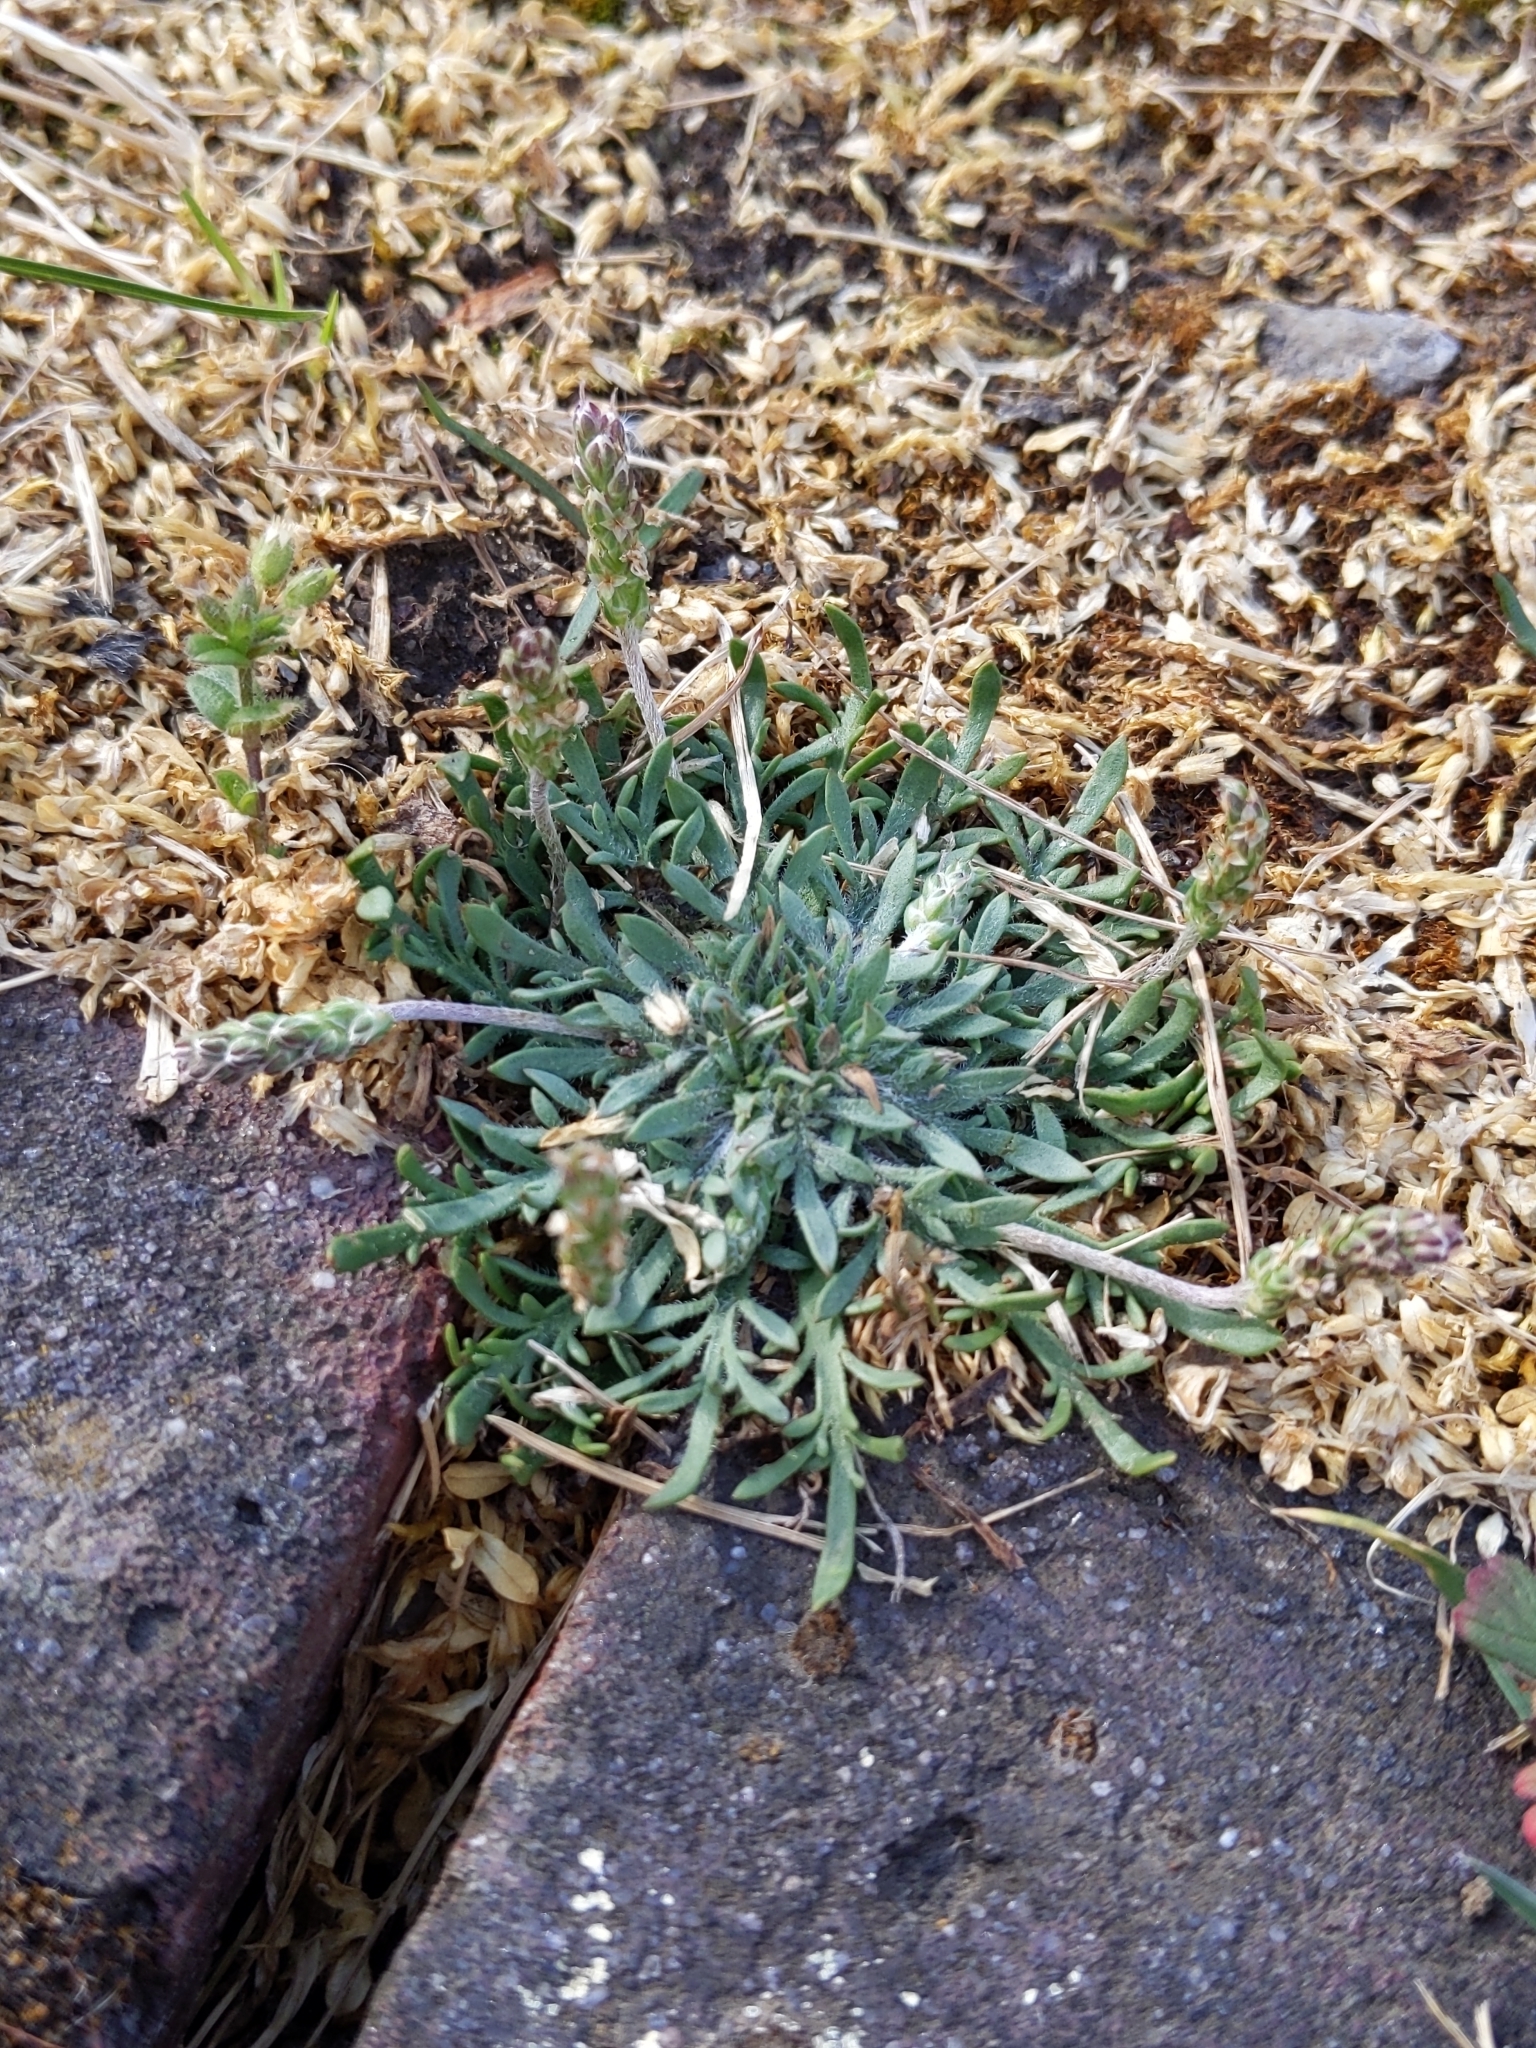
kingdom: Plantae
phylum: Tracheophyta
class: Magnoliopsida
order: Lamiales
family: Plantaginaceae
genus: Plantago
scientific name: Plantago coronopus
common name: Buck's-horn plantain
